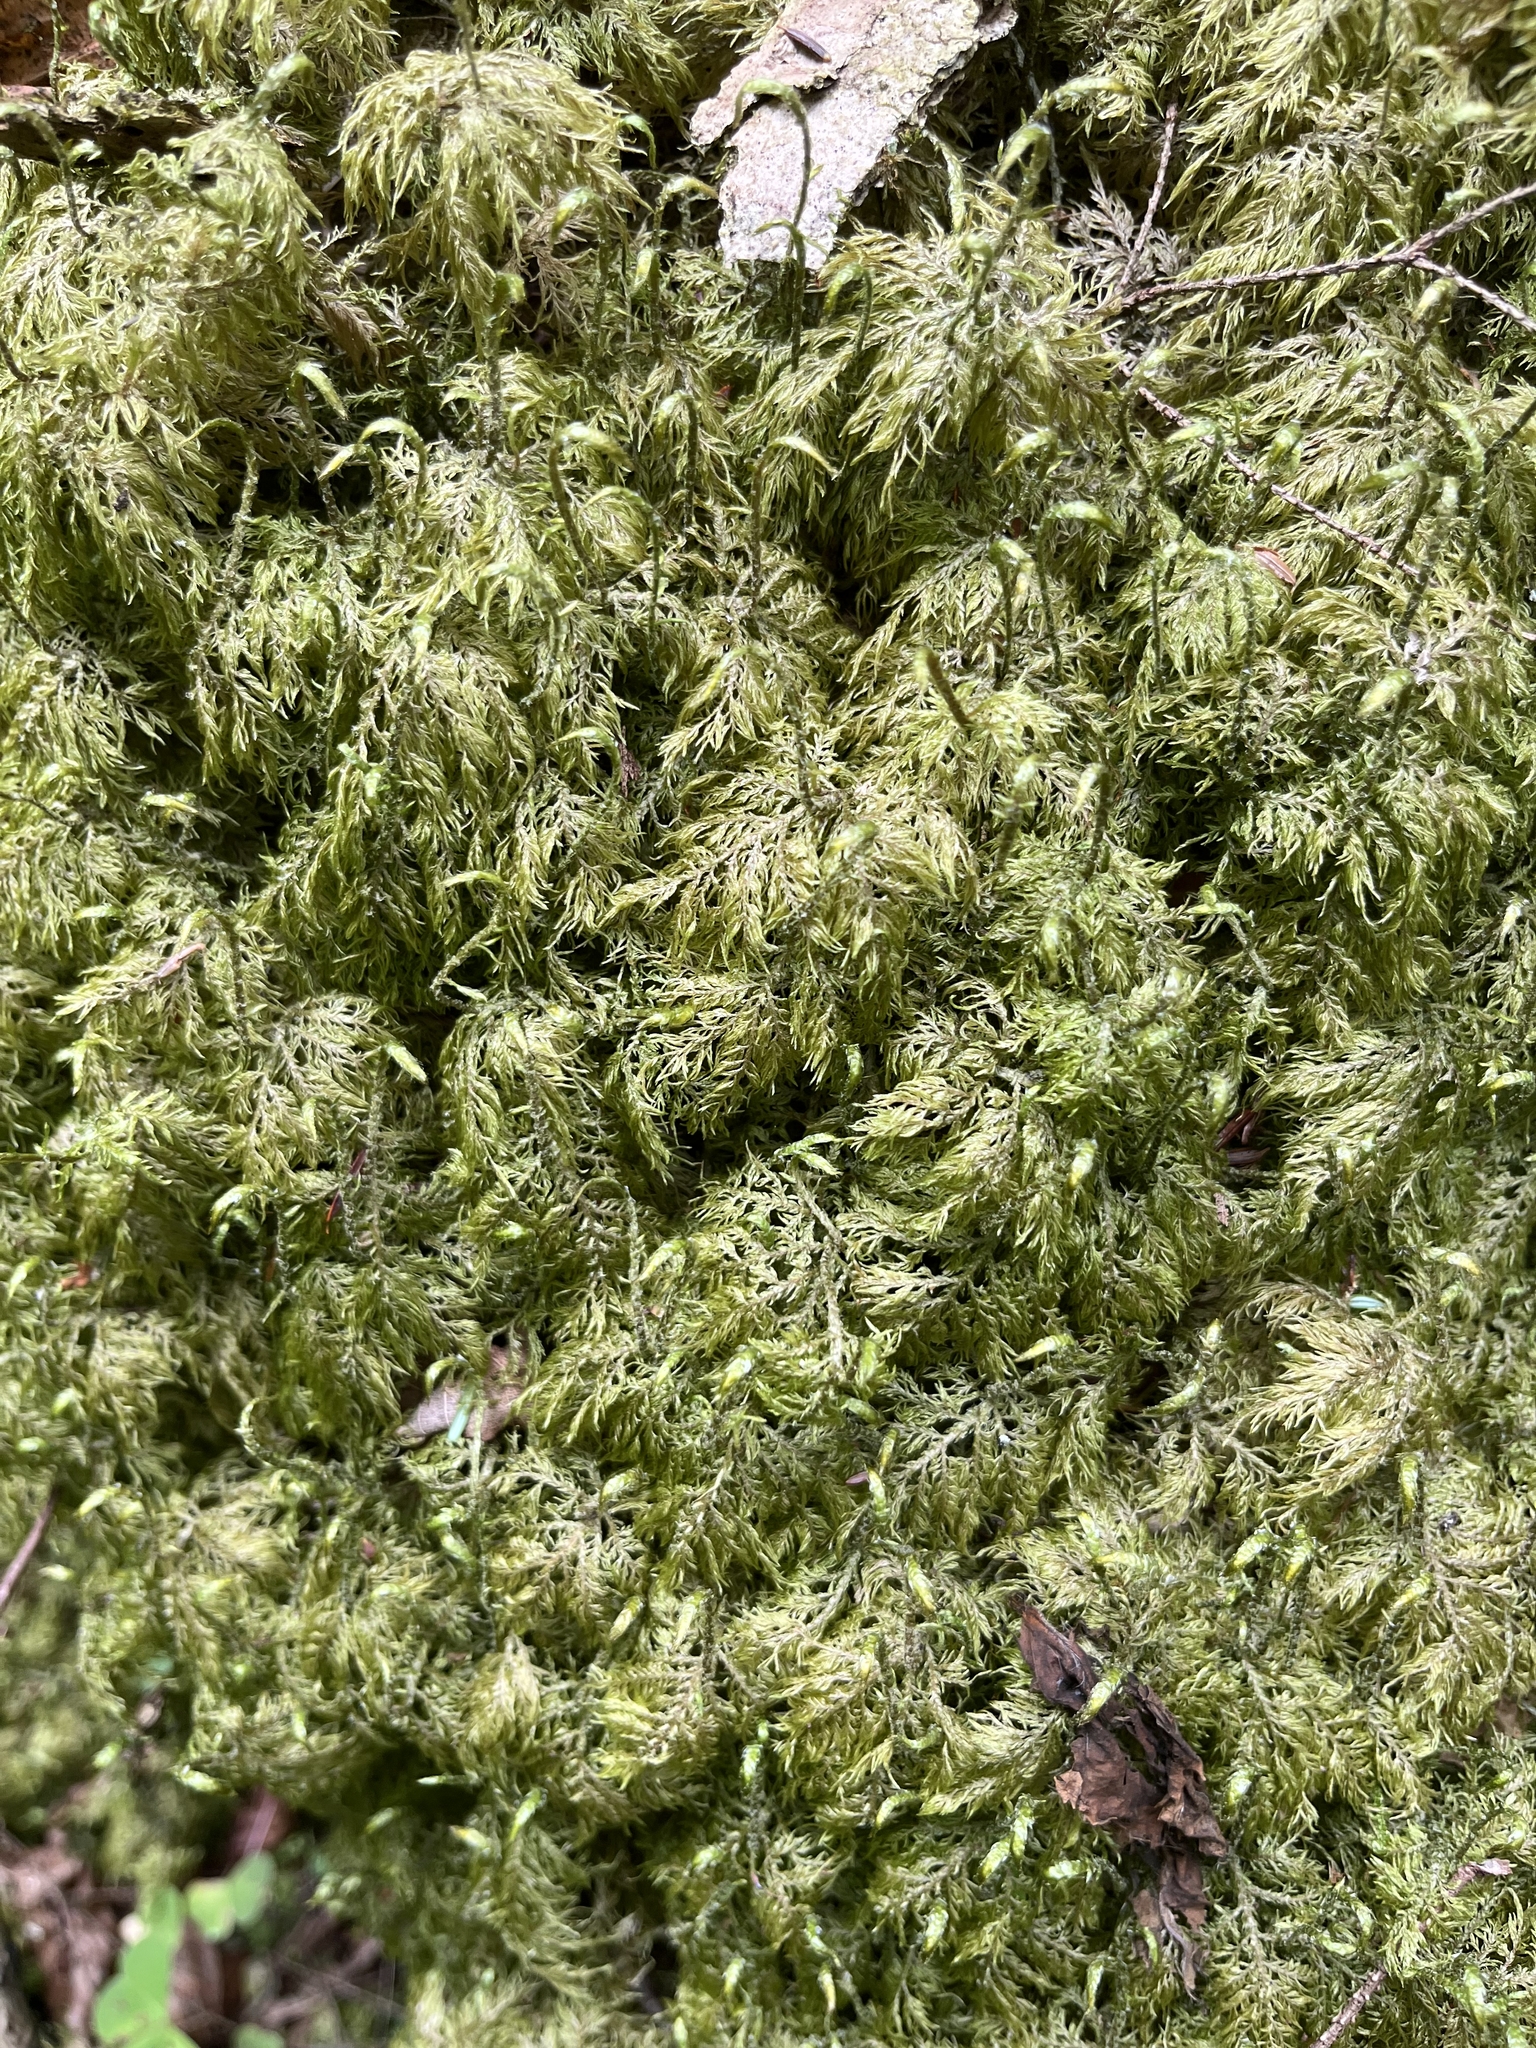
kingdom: Plantae
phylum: Bryophyta
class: Bryopsida
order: Hypnales
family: Hylocomiaceae
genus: Hylocomium
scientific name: Hylocomium splendens
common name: Stairstep moss
